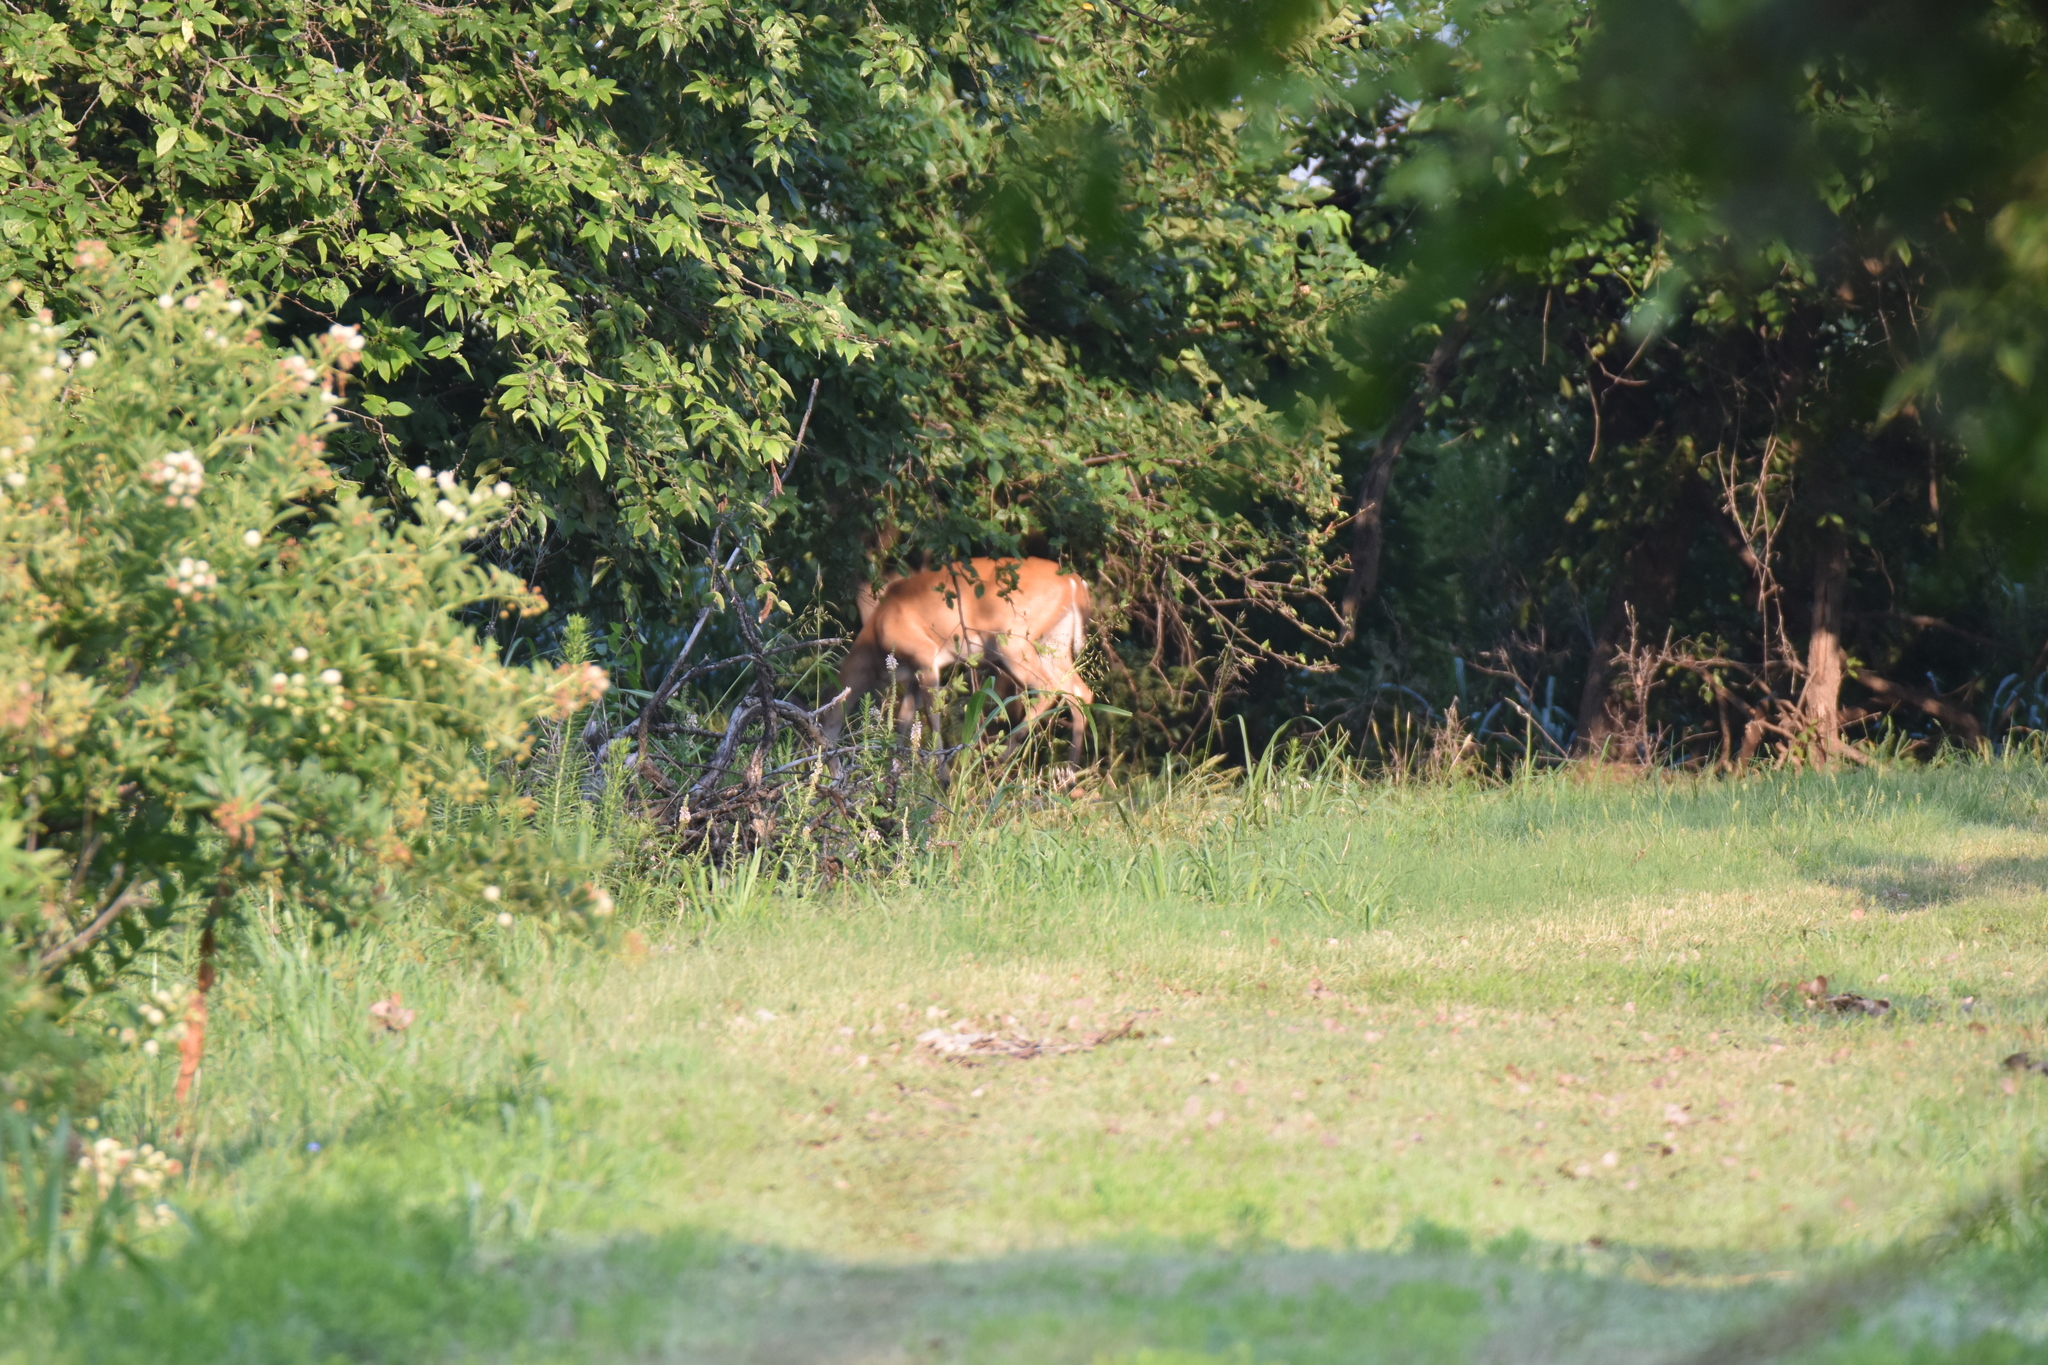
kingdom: Animalia
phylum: Chordata
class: Mammalia
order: Artiodactyla
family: Cervidae
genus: Odocoileus
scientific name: Odocoileus virginianus
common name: White-tailed deer
